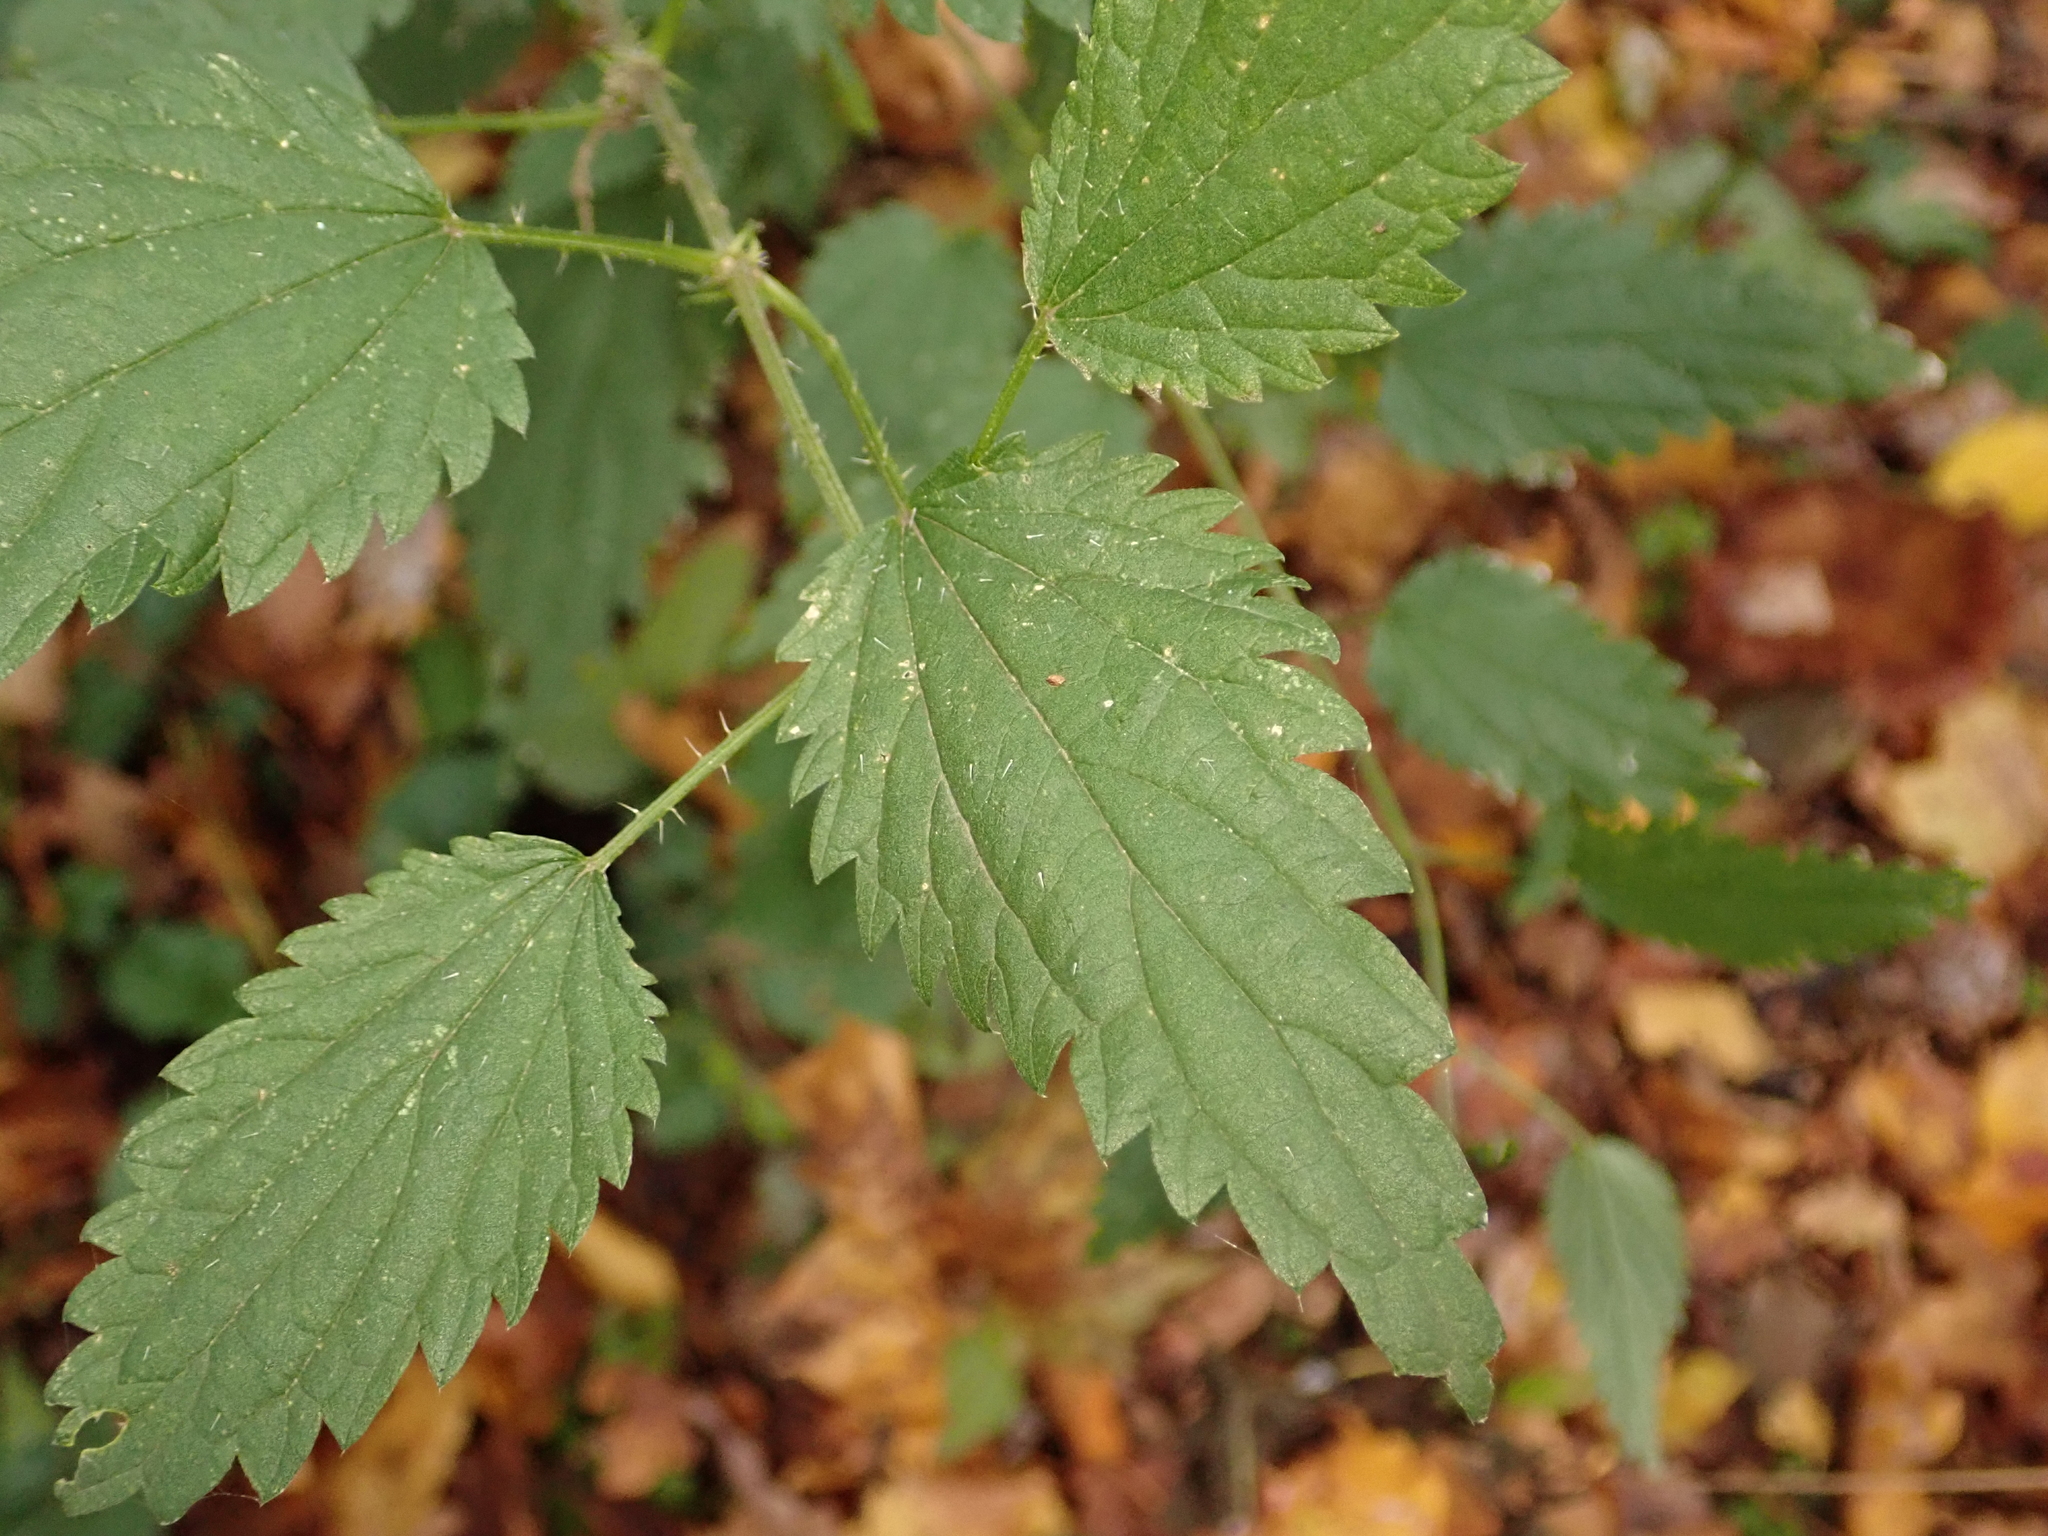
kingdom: Plantae
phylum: Tracheophyta
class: Magnoliopsida
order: Rosales
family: Urticaceae
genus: Urtica
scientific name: Urtica dioica
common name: Common nettle
